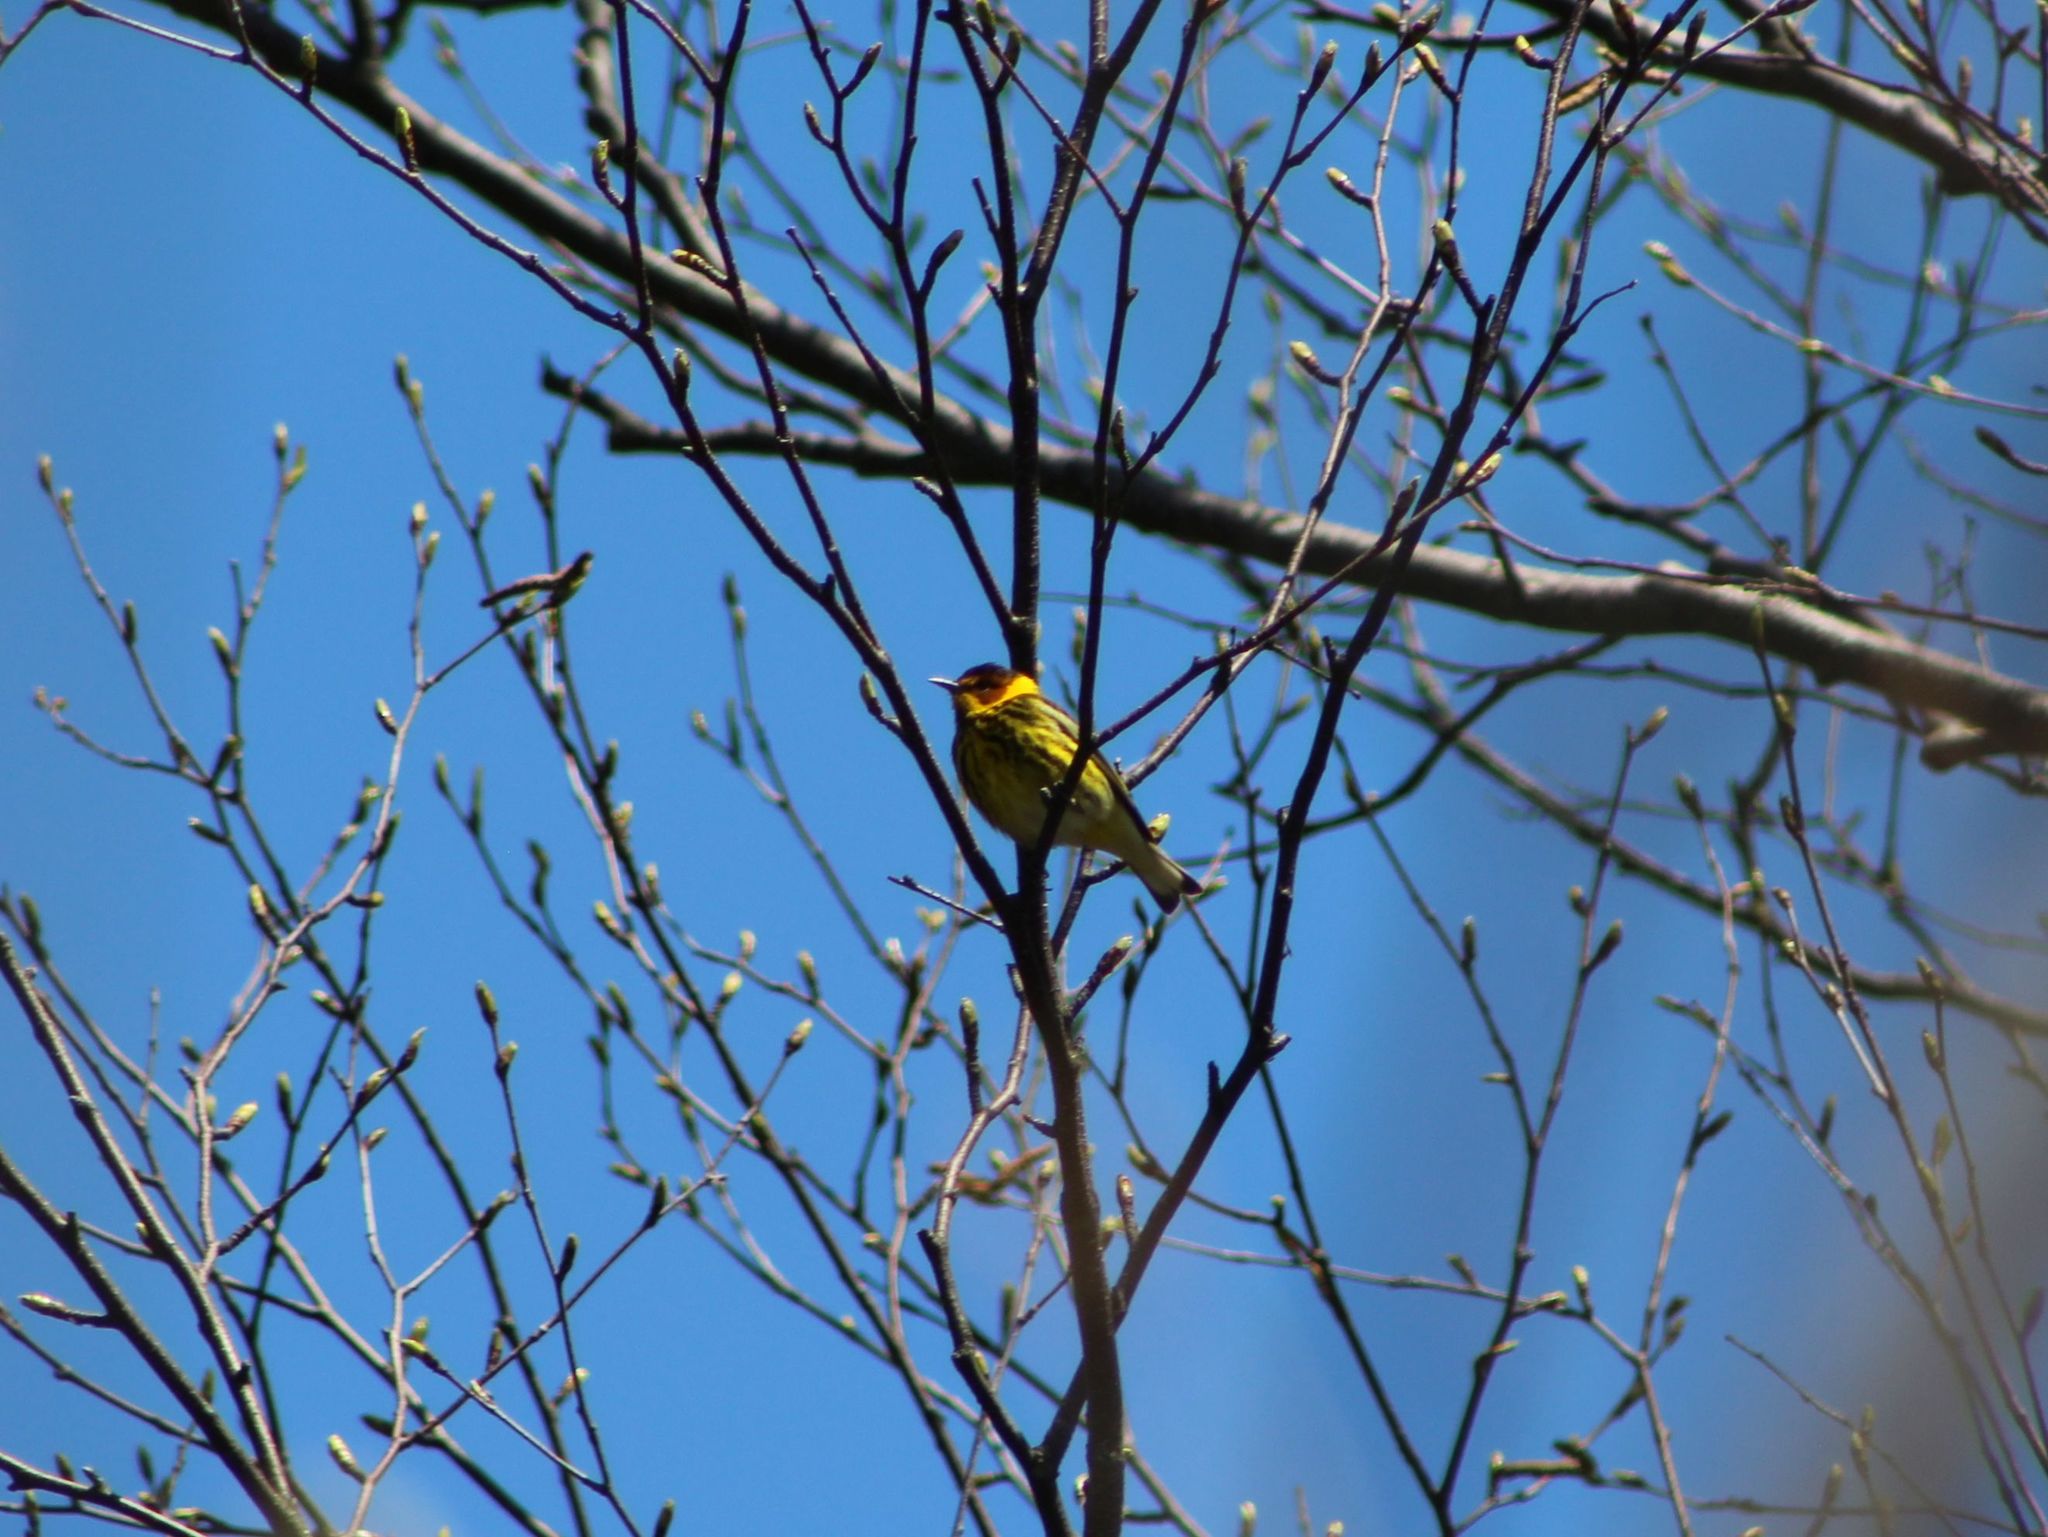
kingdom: Animalia
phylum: Chordata
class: Aves
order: Passeriformes
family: Parulidae
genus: Setophaga
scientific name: Setophaga tigrina
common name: Cape may warbler
